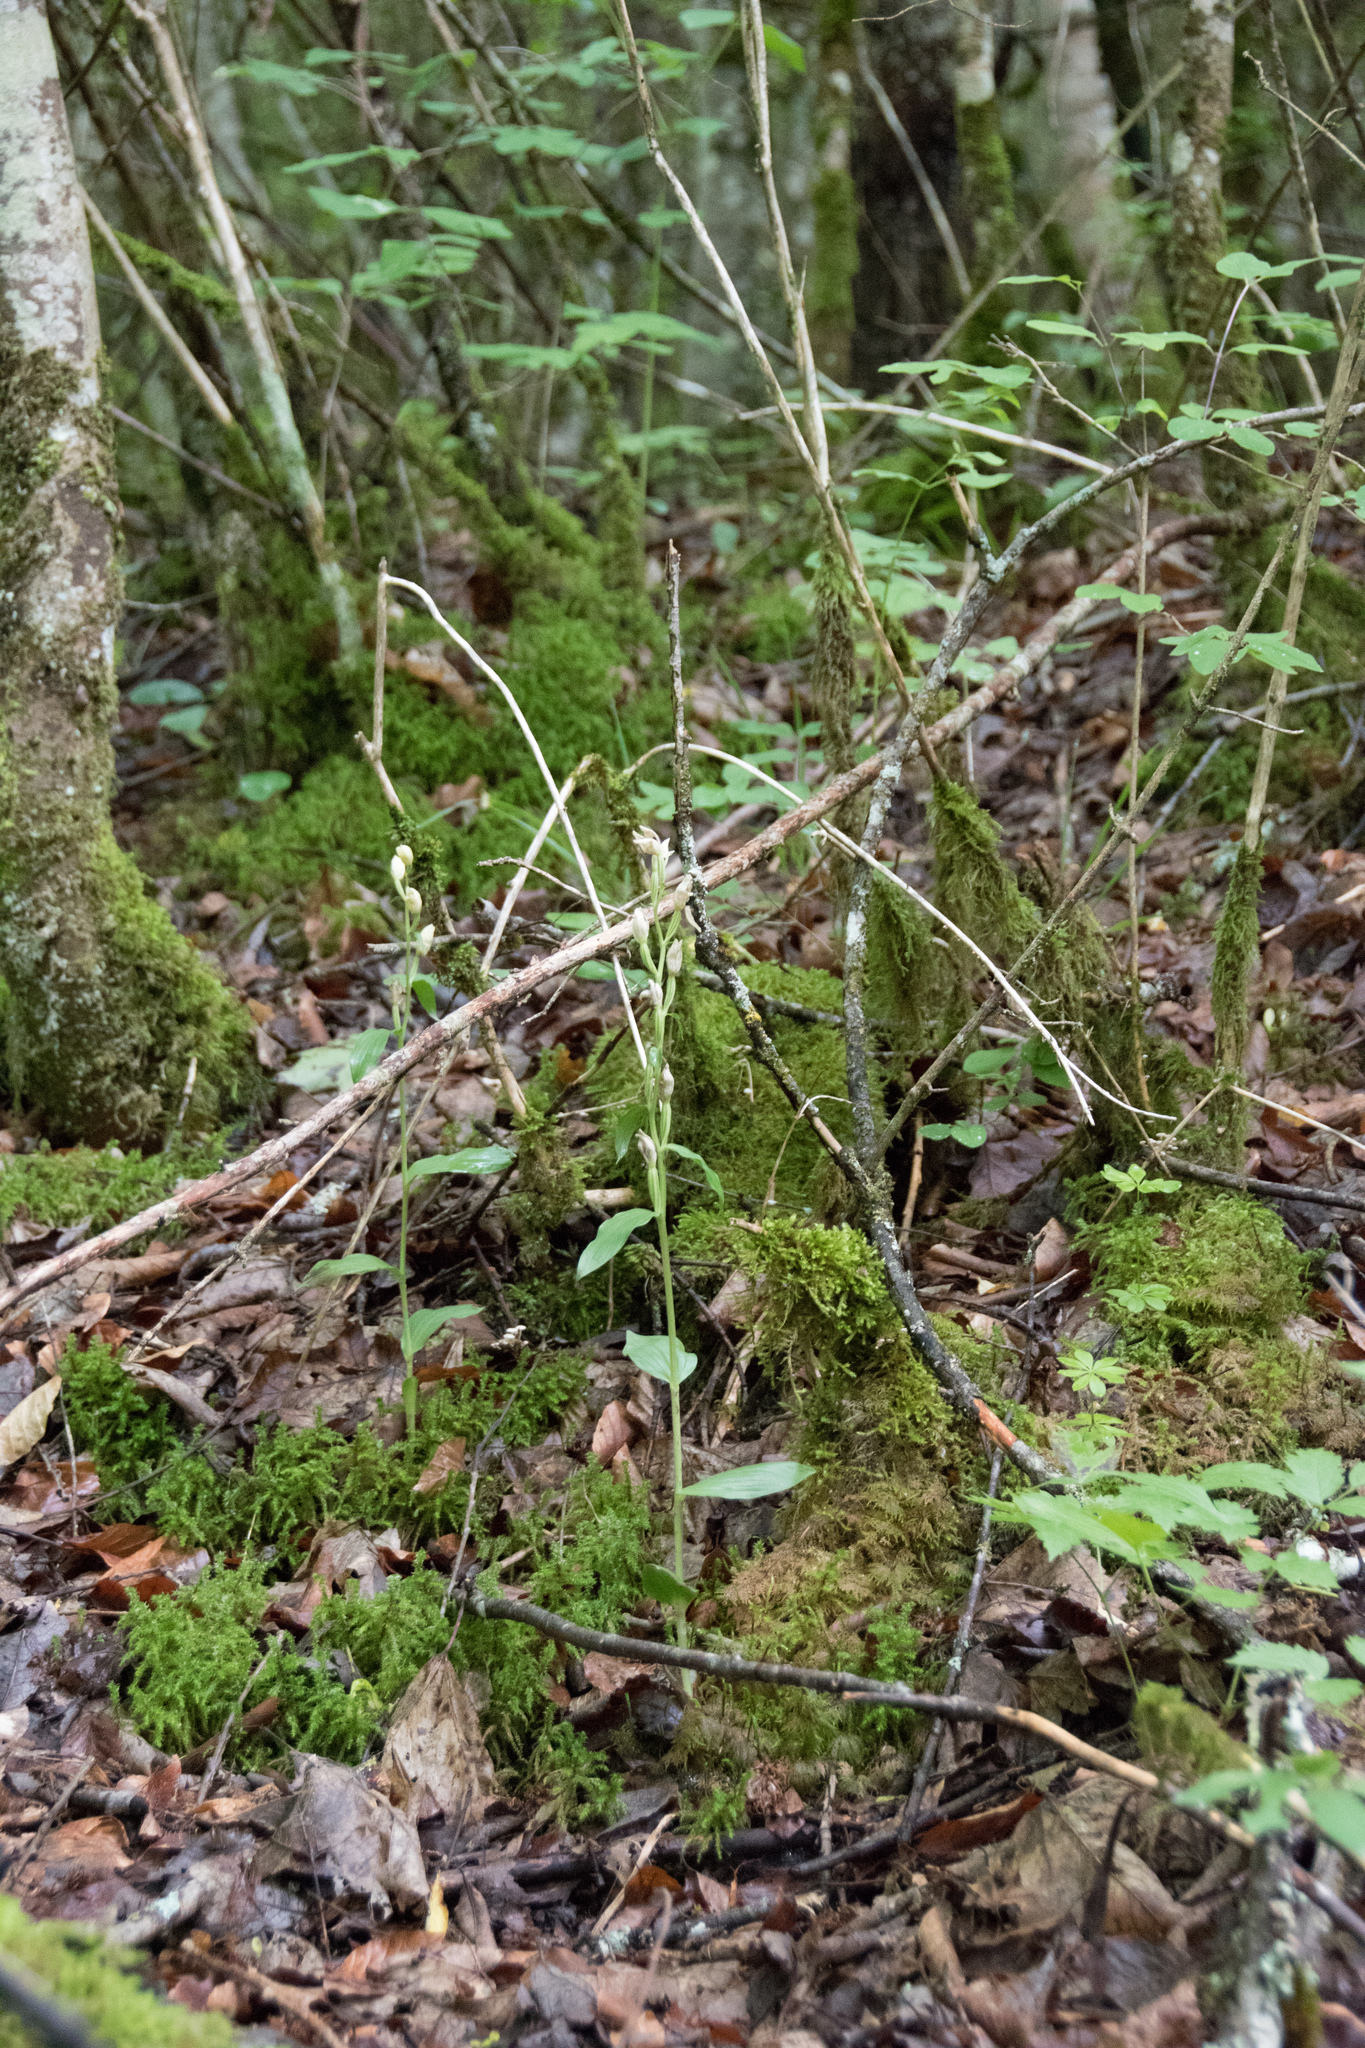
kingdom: Plantae
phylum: Tracheophyta
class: Liliopsida
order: Asparagales
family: Orchidaceae
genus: Cephalanthera
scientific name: Cephalanthera damasonium
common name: White helleborine
